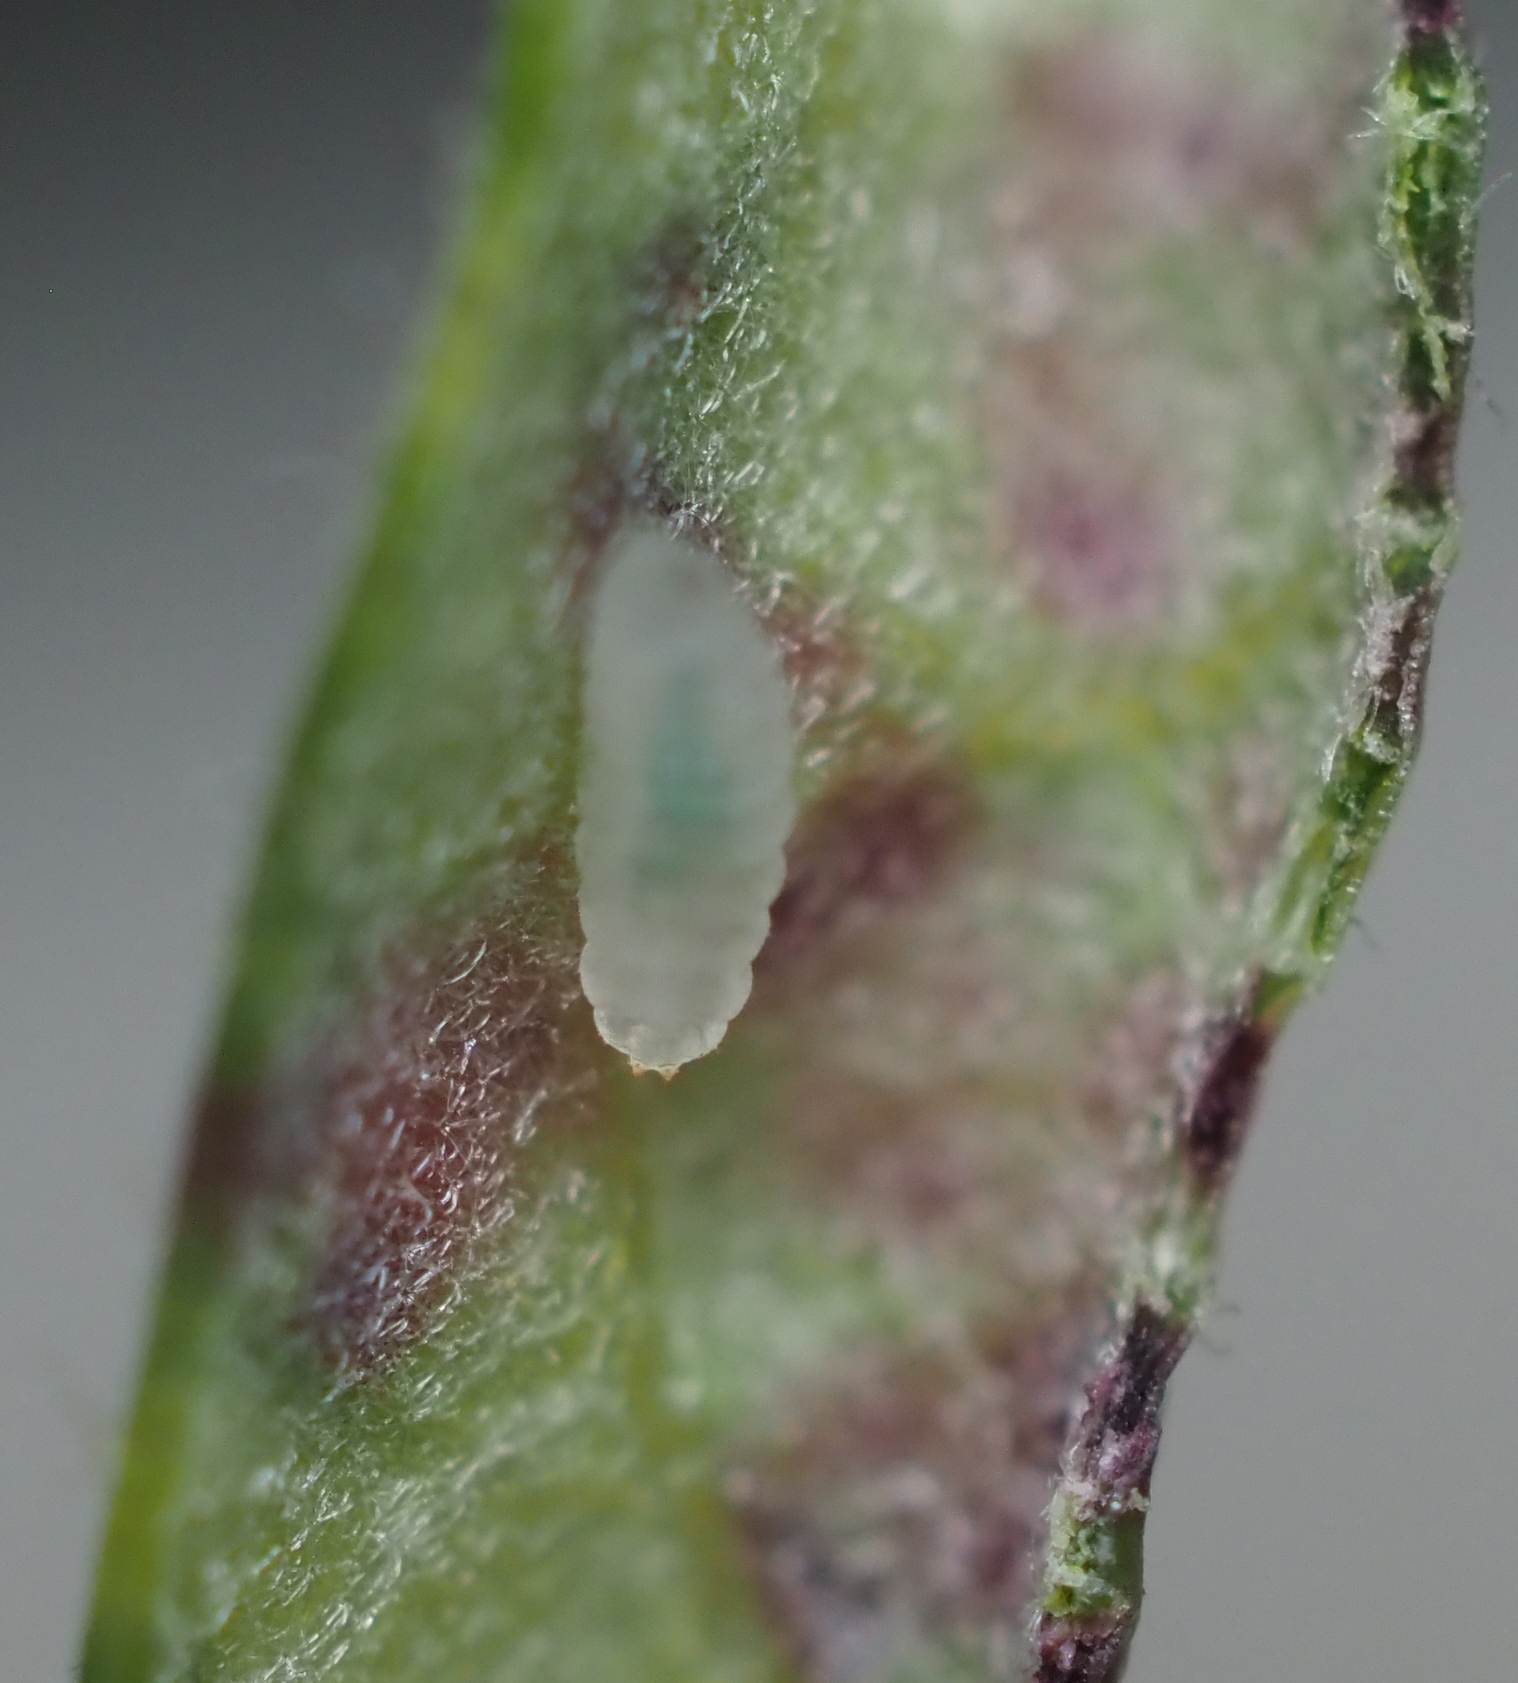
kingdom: Animalia
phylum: Arthropoda
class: Insecta
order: Diptera
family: Cecidomyiidae
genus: Macrodiplosis
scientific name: Macrodiplosis erubescens
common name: Marginal leaf fold gall midge
